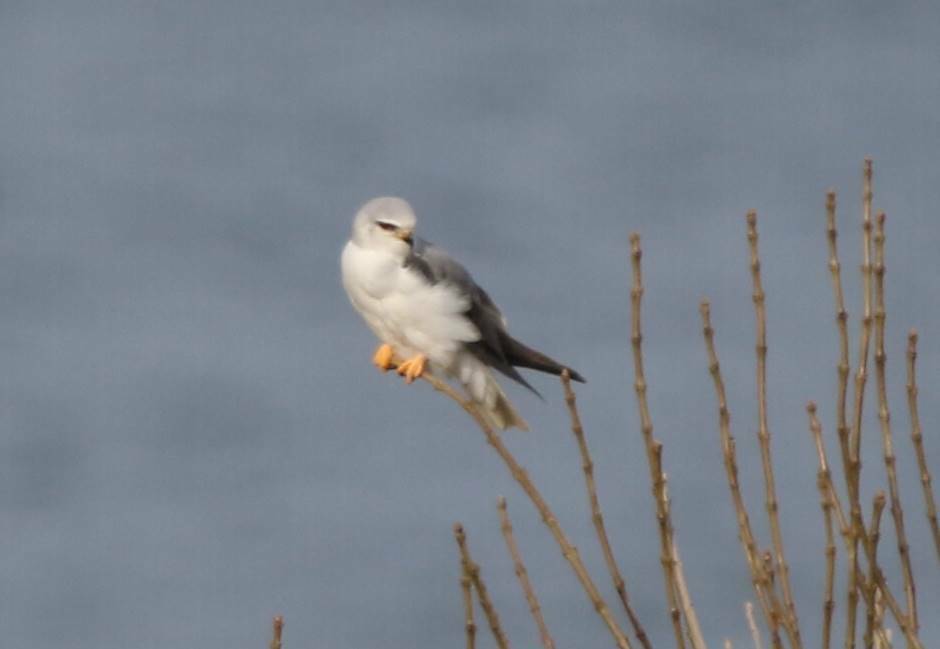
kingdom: Animalia
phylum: Chordata
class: Aves
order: Accipitriformes
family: Accipitridae
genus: Elanus
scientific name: Elanus caeruleus
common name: Black-winged kite
